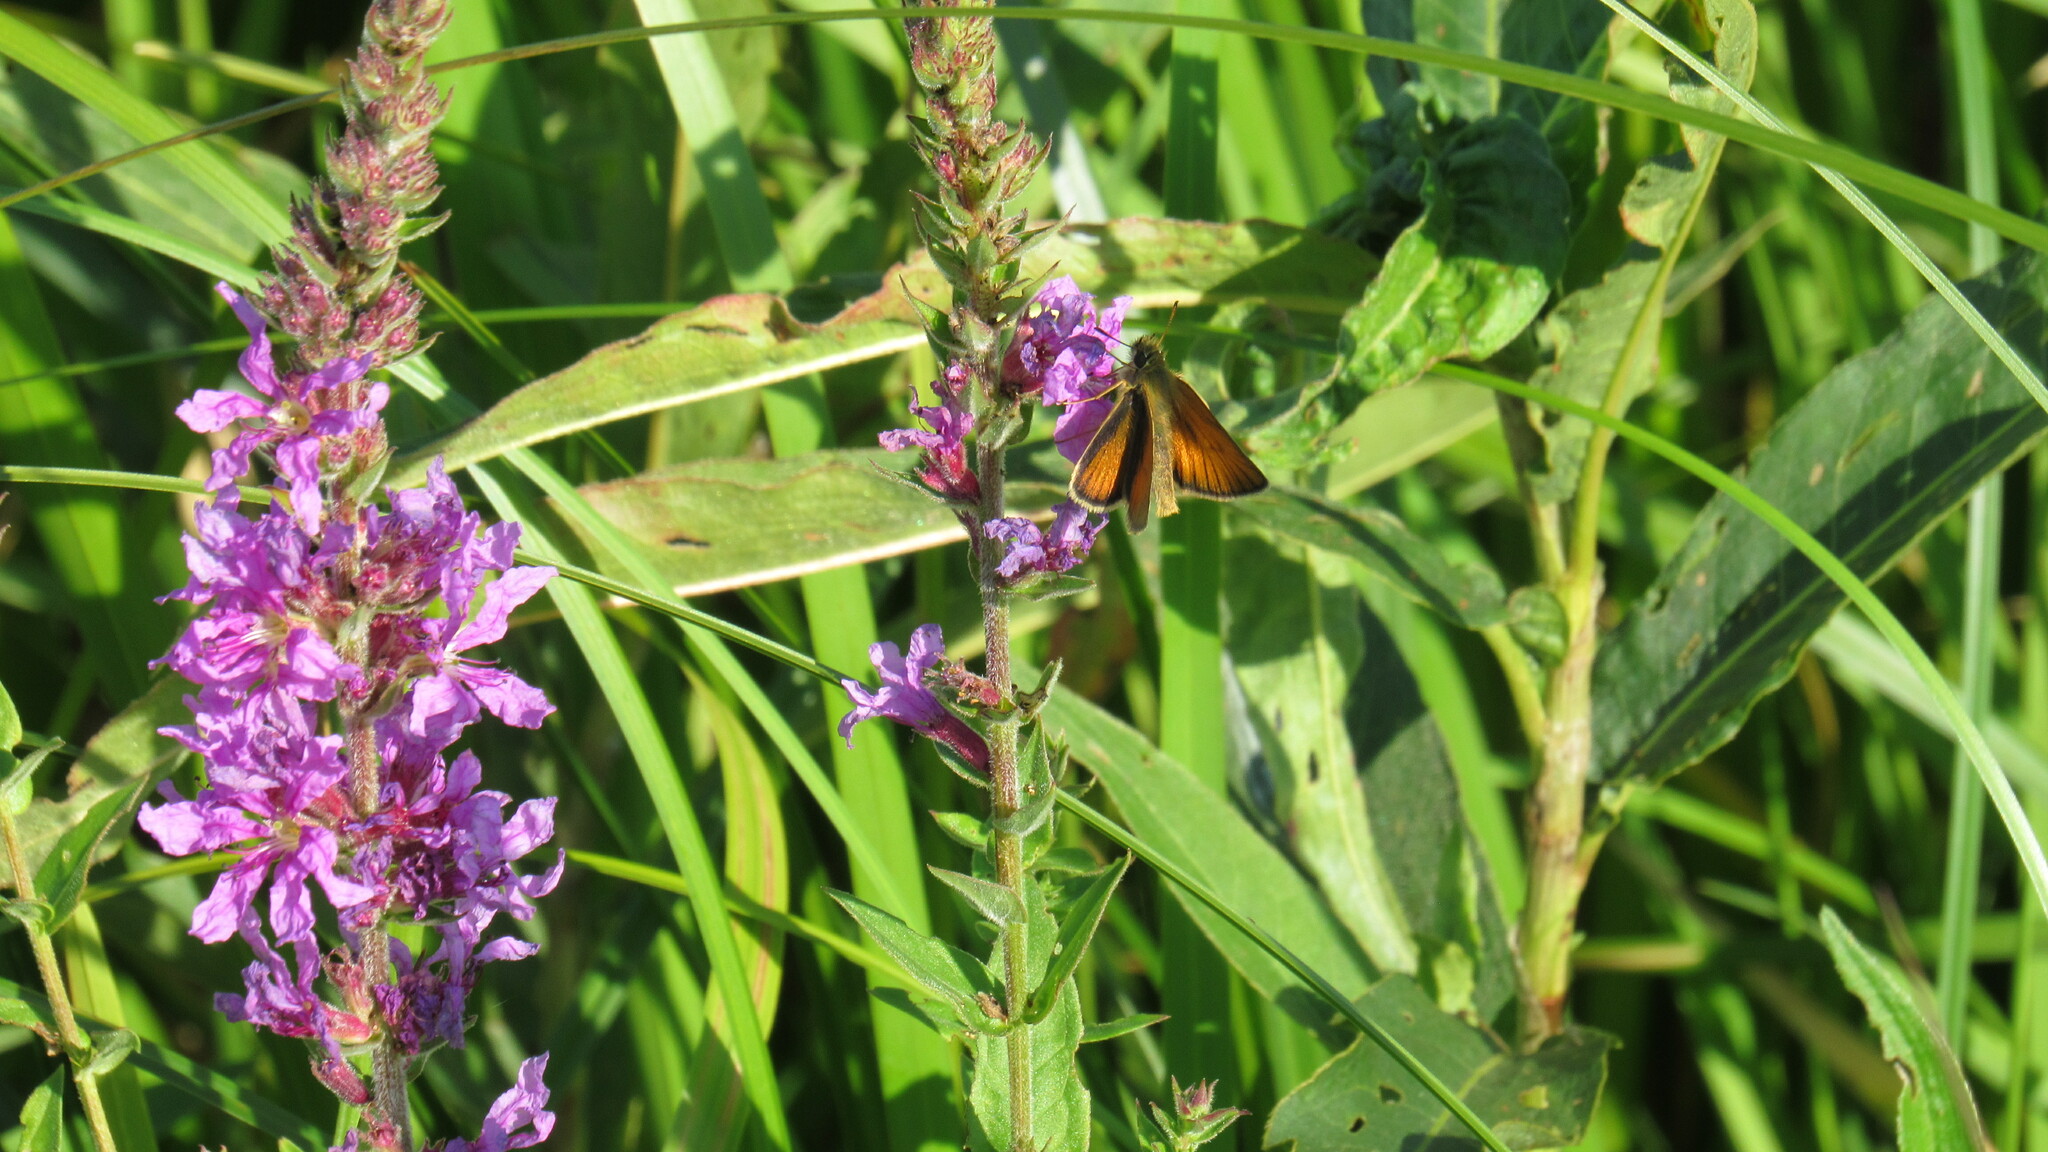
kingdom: Animalia
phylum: Arthropoda
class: Insecta
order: Lepidoptera
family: Hesperiidae
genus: Thymelicus
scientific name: Thymelicus lineola
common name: Essex skipper
